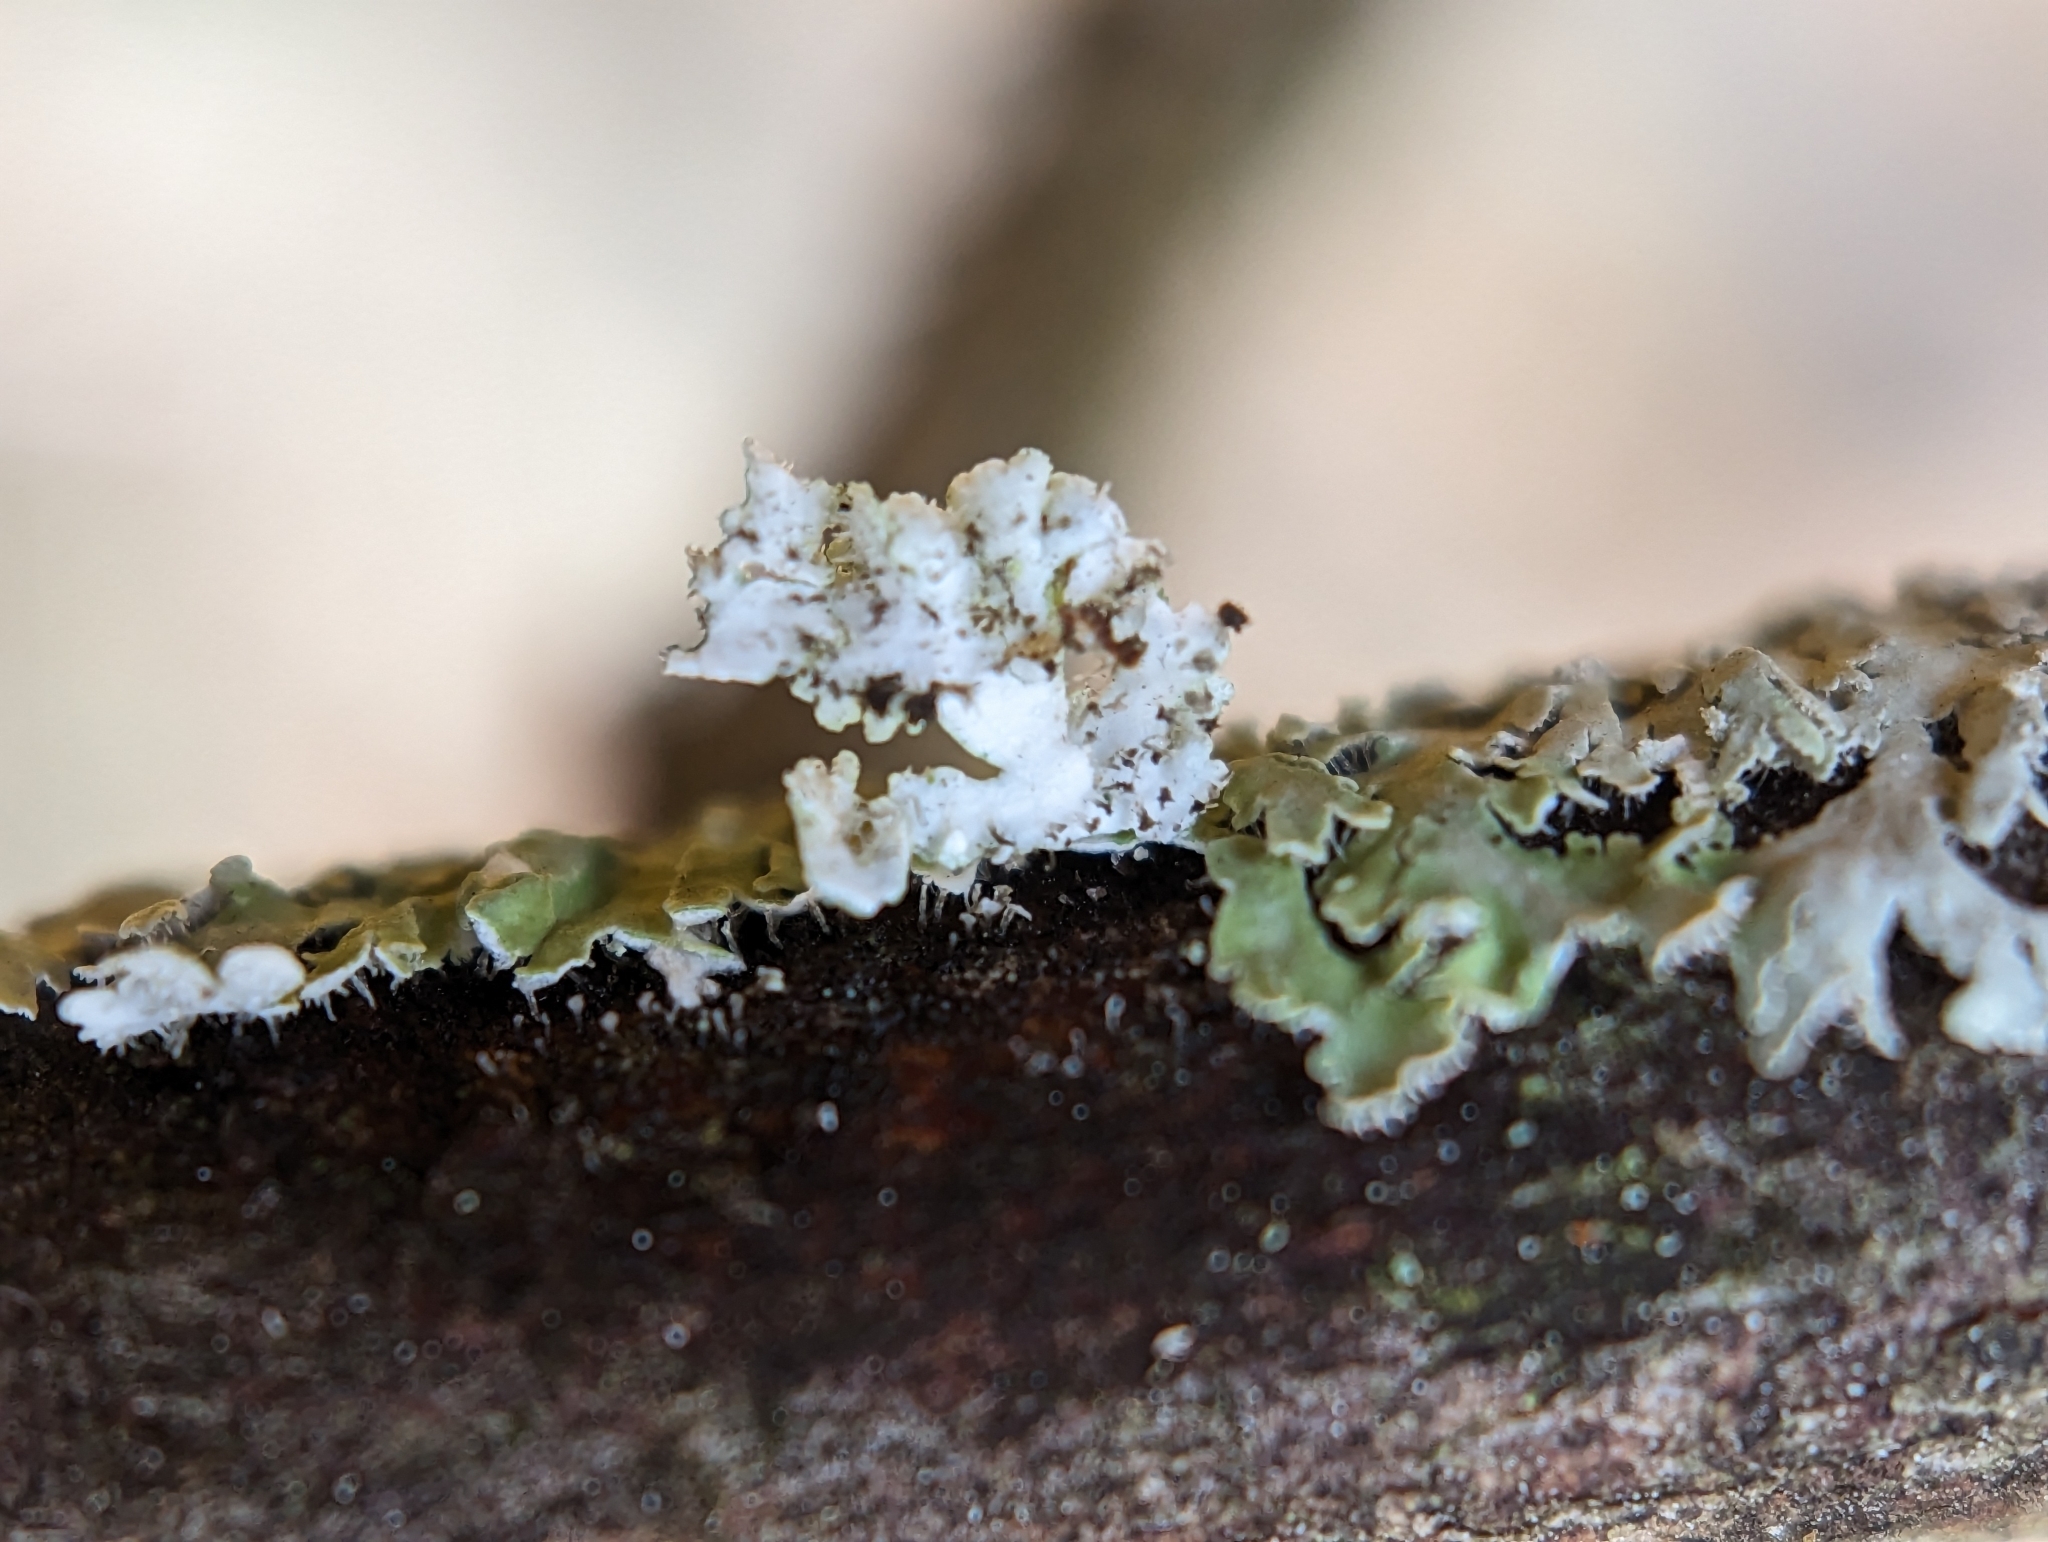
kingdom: Fungi
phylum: Ascomycota
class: Lecanoromycetes
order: Caliciales
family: Physciaceae
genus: Physcia
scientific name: Physcia americana
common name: American rosette lichen
